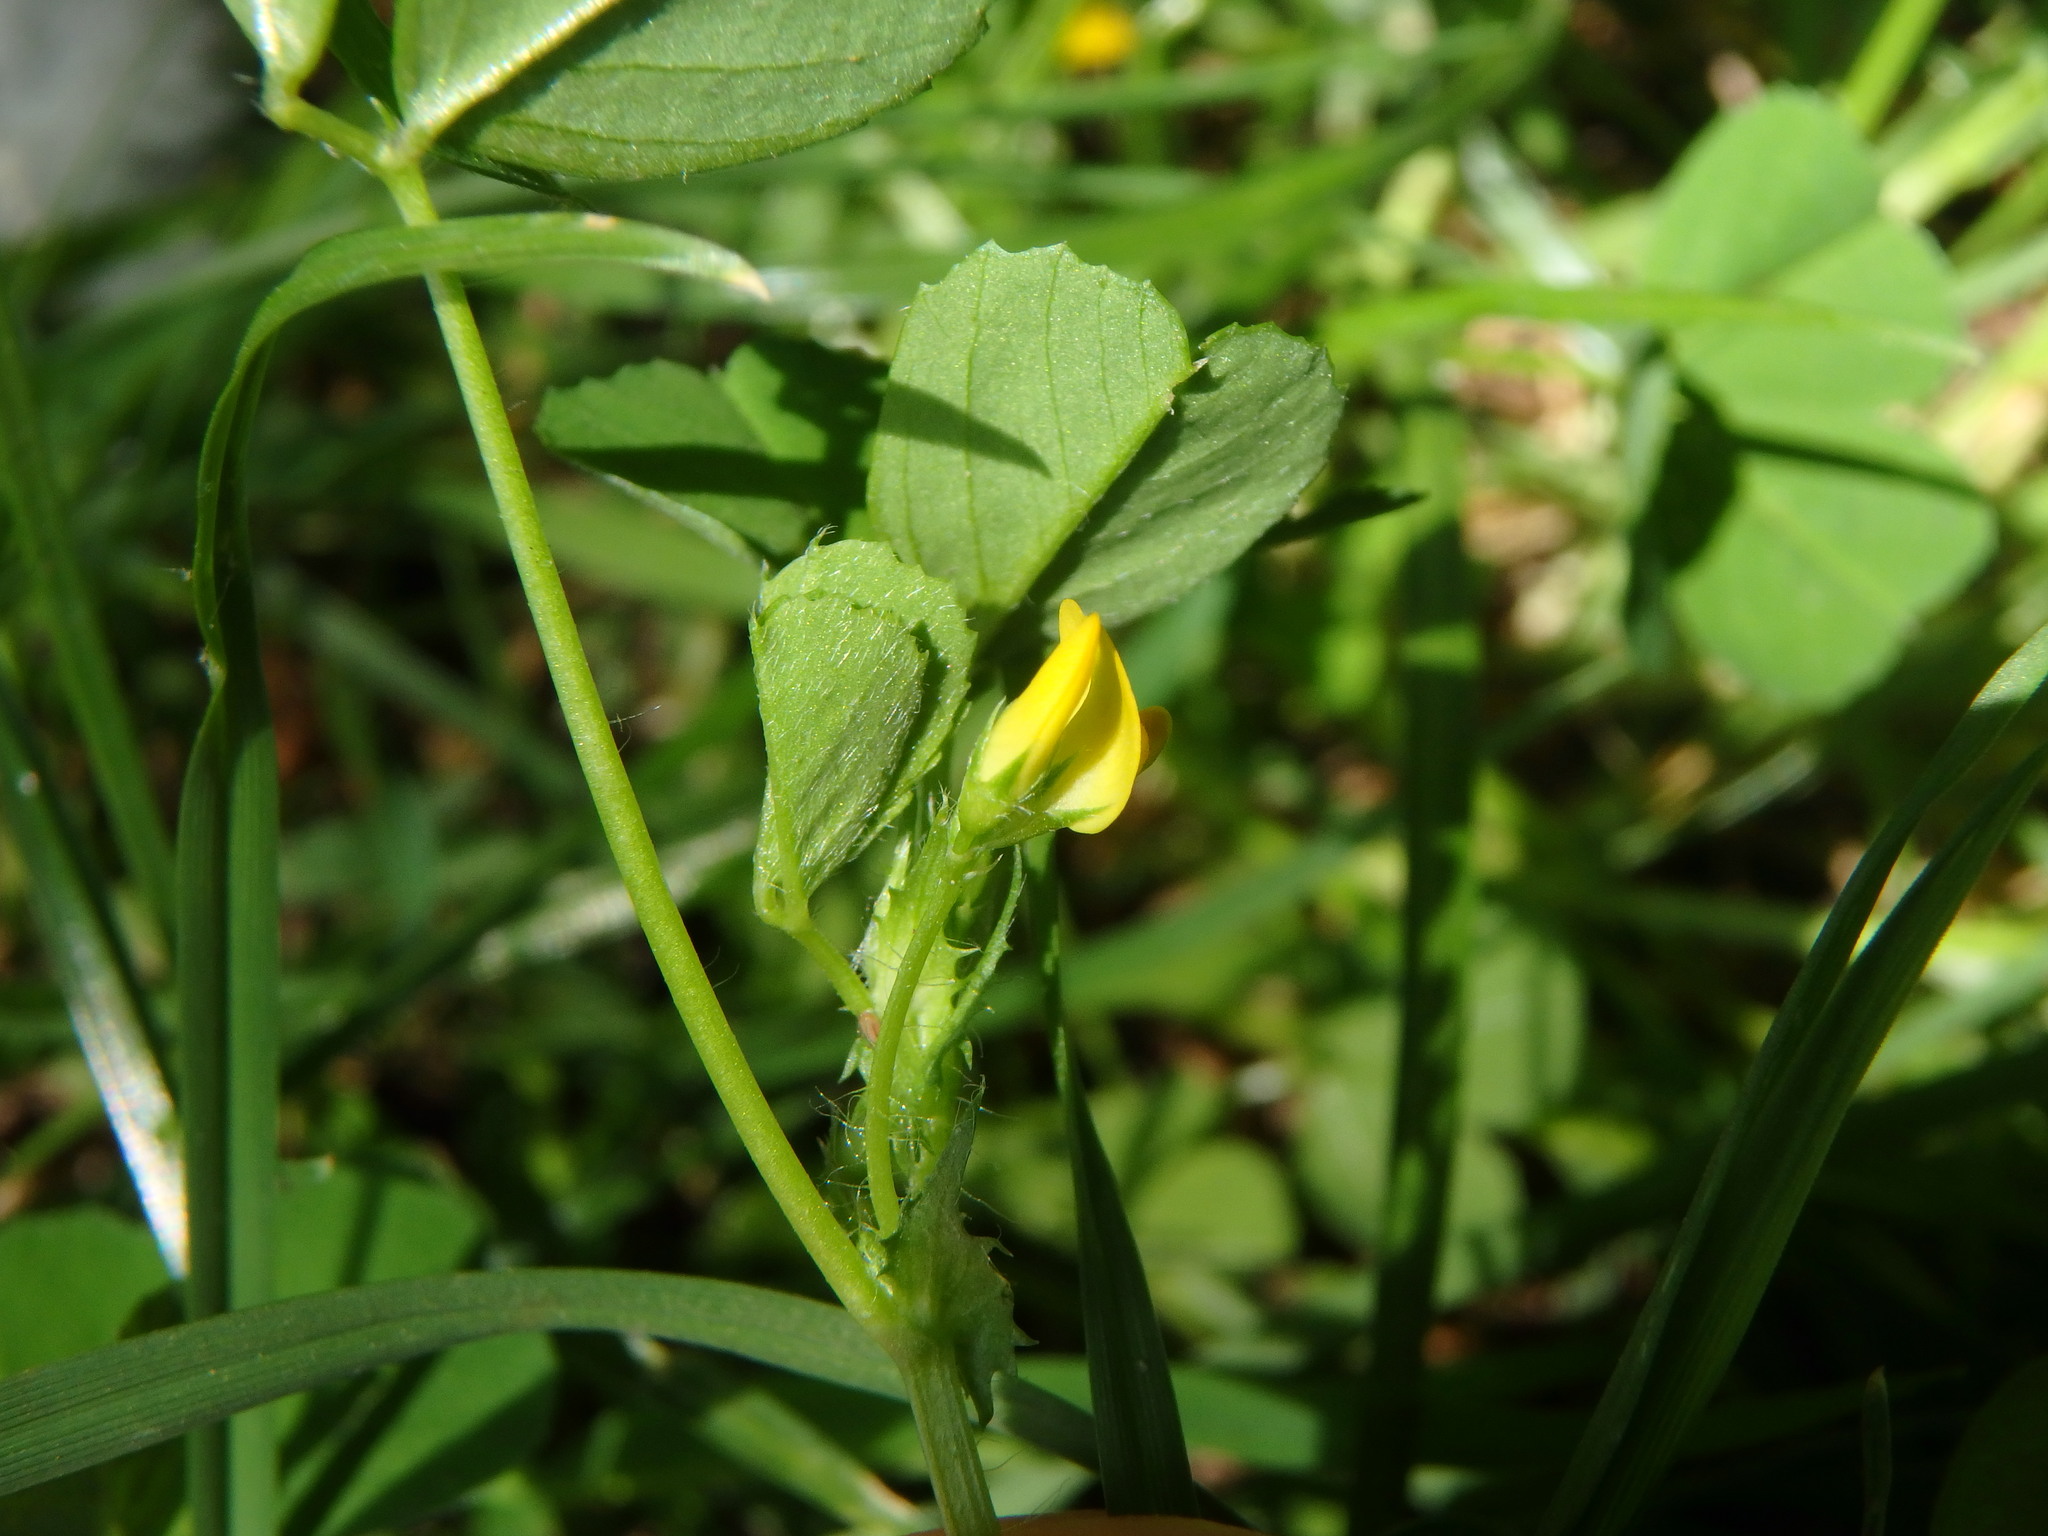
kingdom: Plantae
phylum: Tracheophyta
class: Magnoliopsida
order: Fabales
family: Fabaceae
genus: Medicago
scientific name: Medicago arabica
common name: Spotted medick
